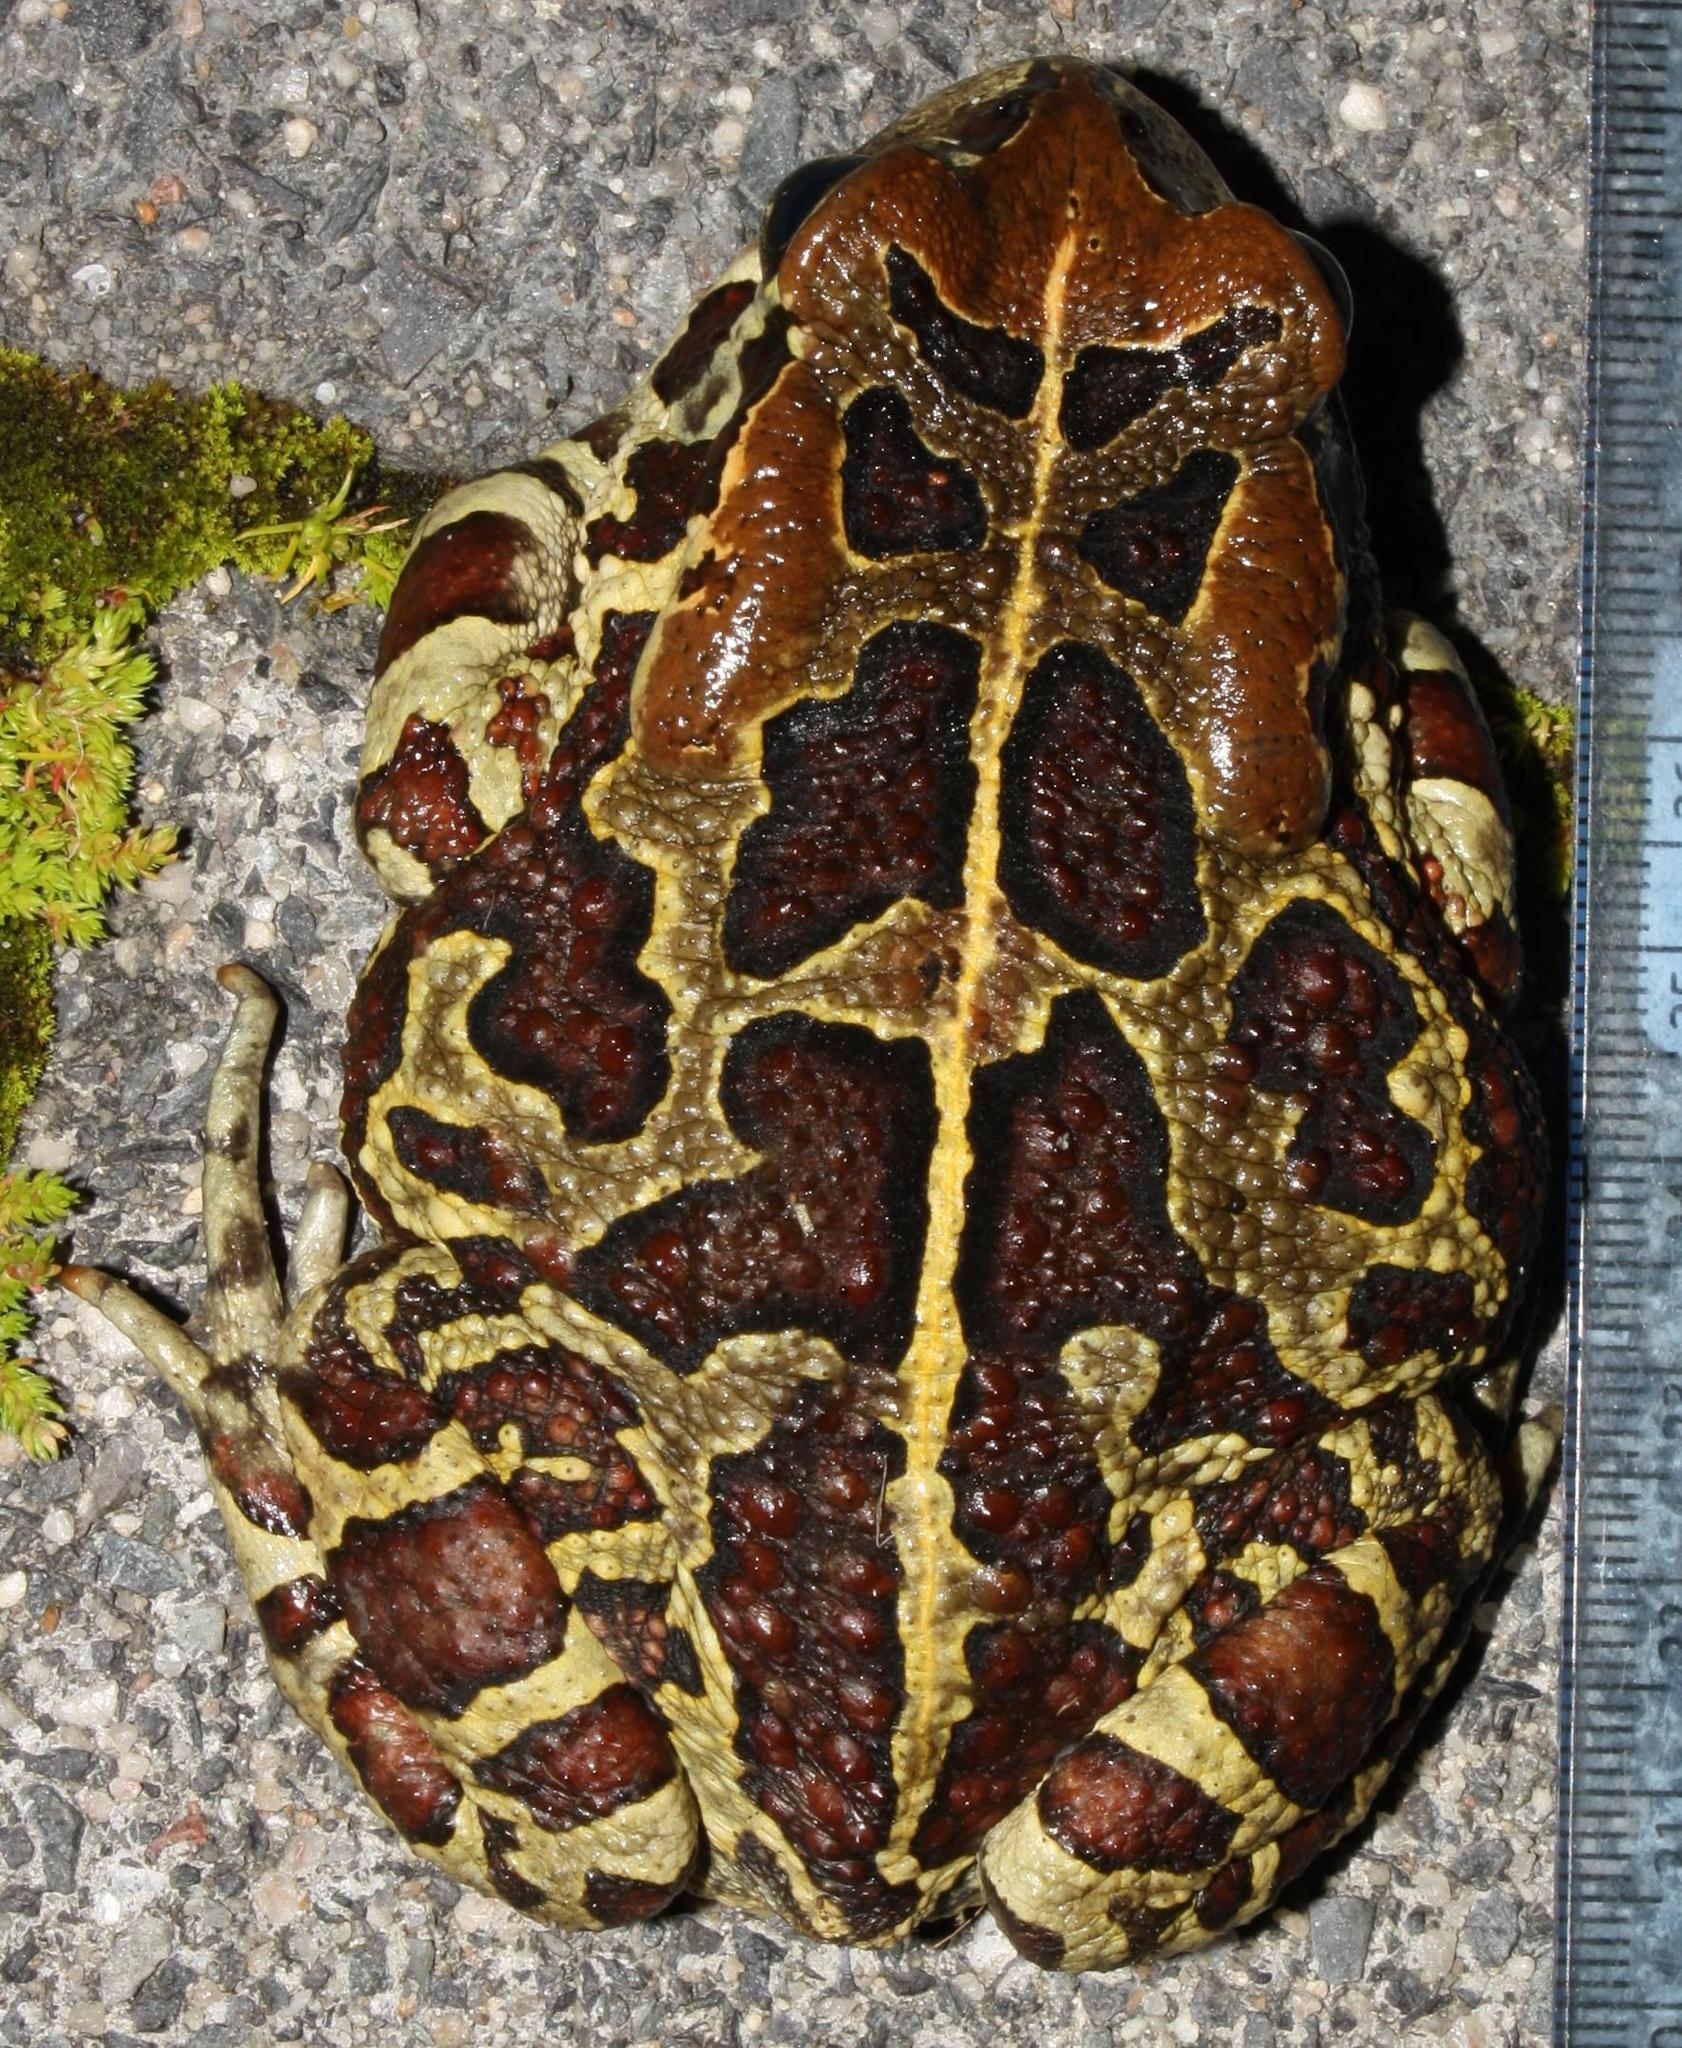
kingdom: Animalia
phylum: Chordata
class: Amphibia
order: Anura
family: Bufonidae
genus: Sclerophrys
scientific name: Sclerophrys pantherina
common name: Panther toad
